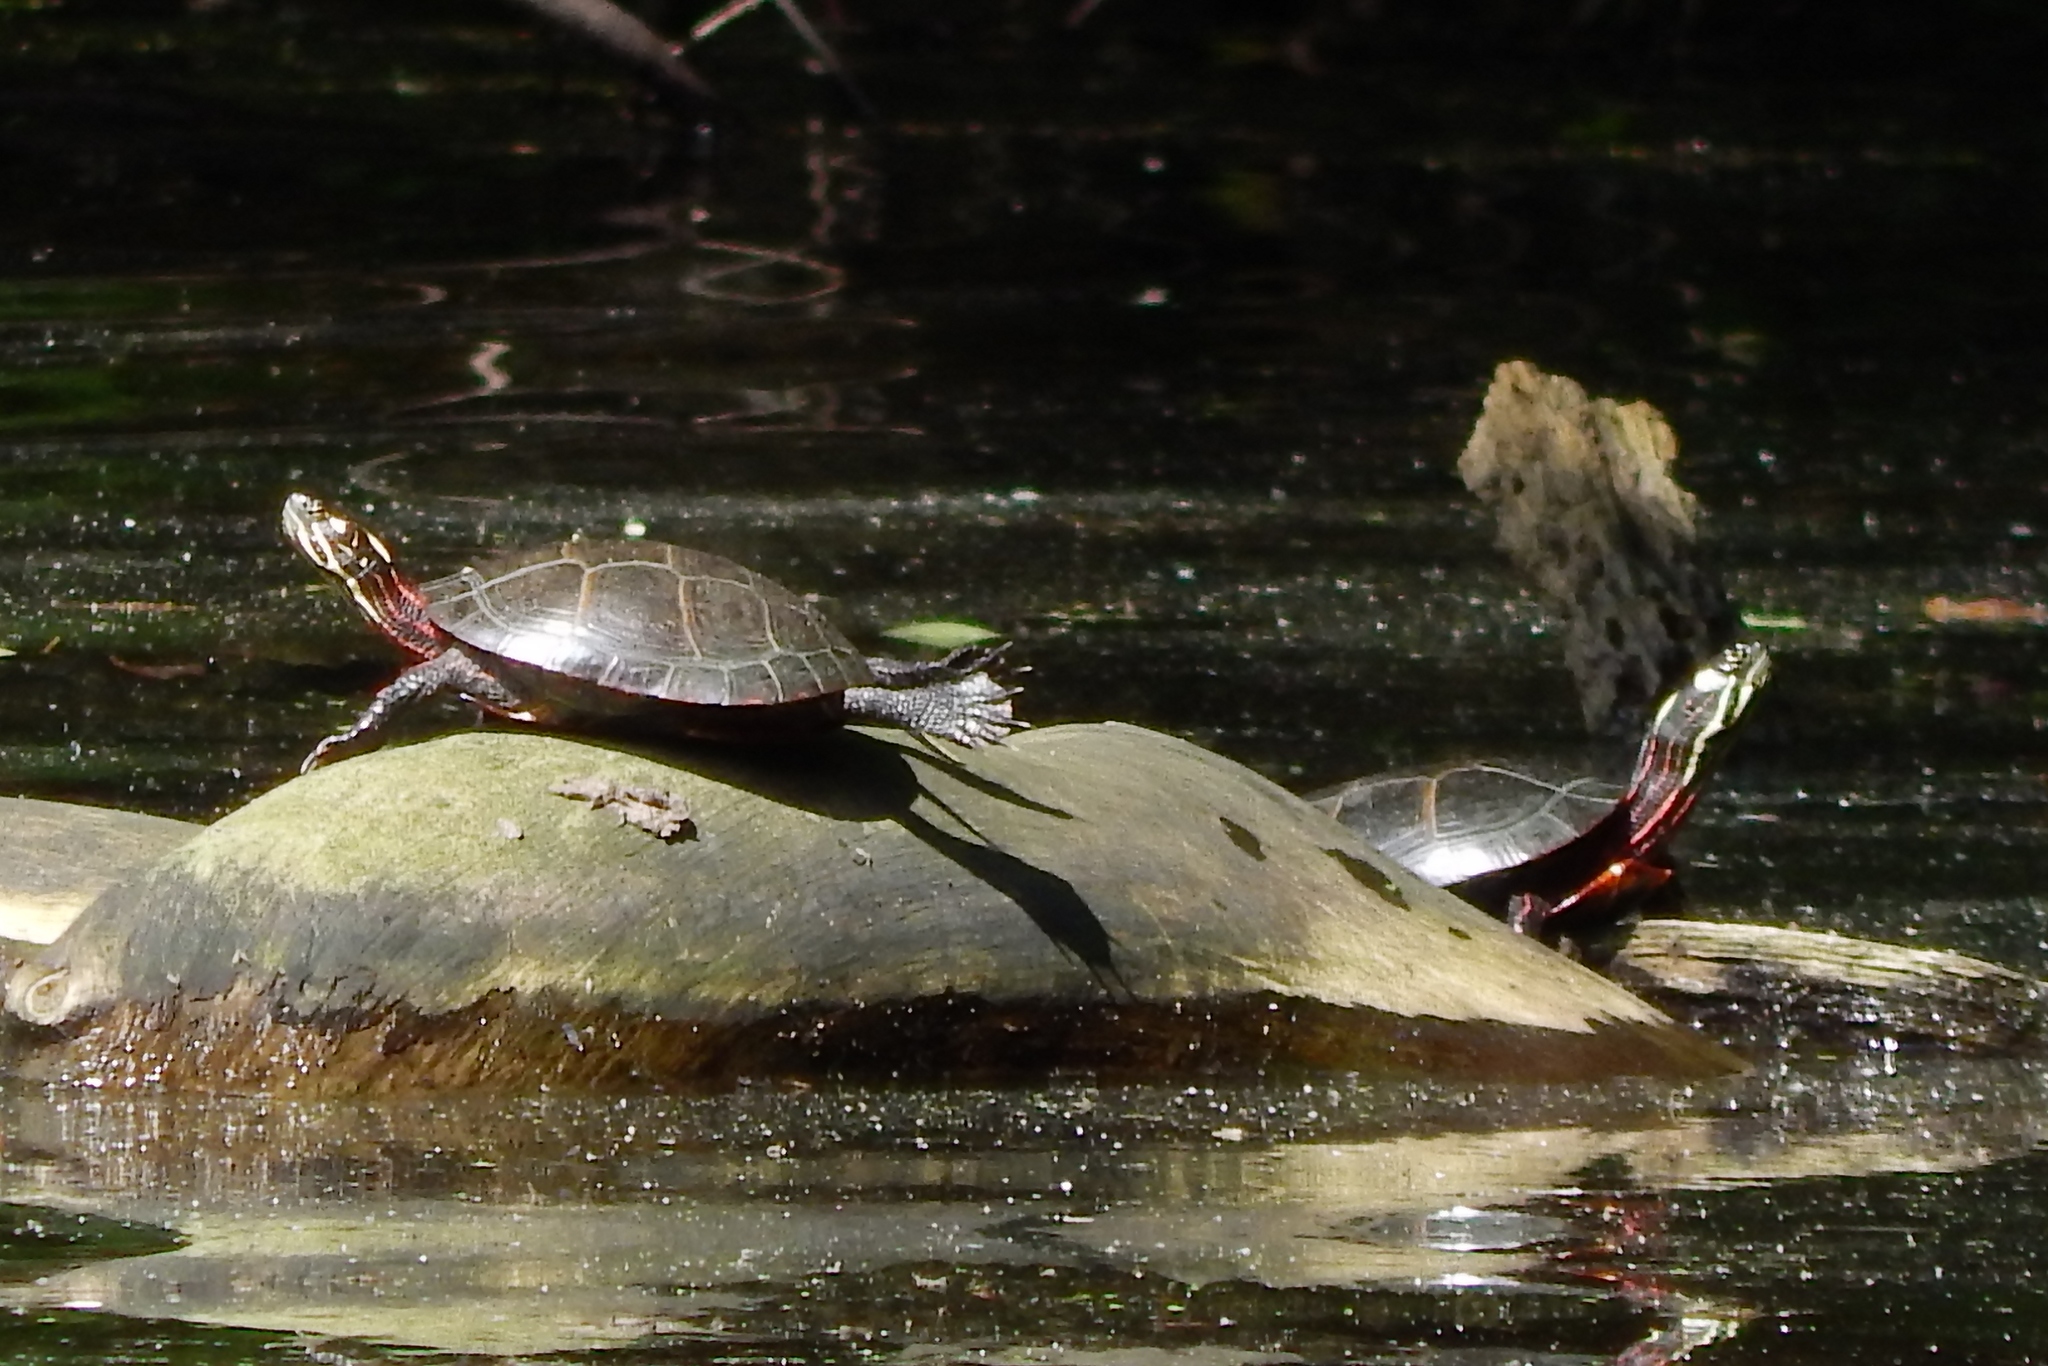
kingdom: Animalia
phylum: Chordata
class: Testudines
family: Emydidae
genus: Chrysemys
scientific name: Chrysemys picta
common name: Painted turtle
